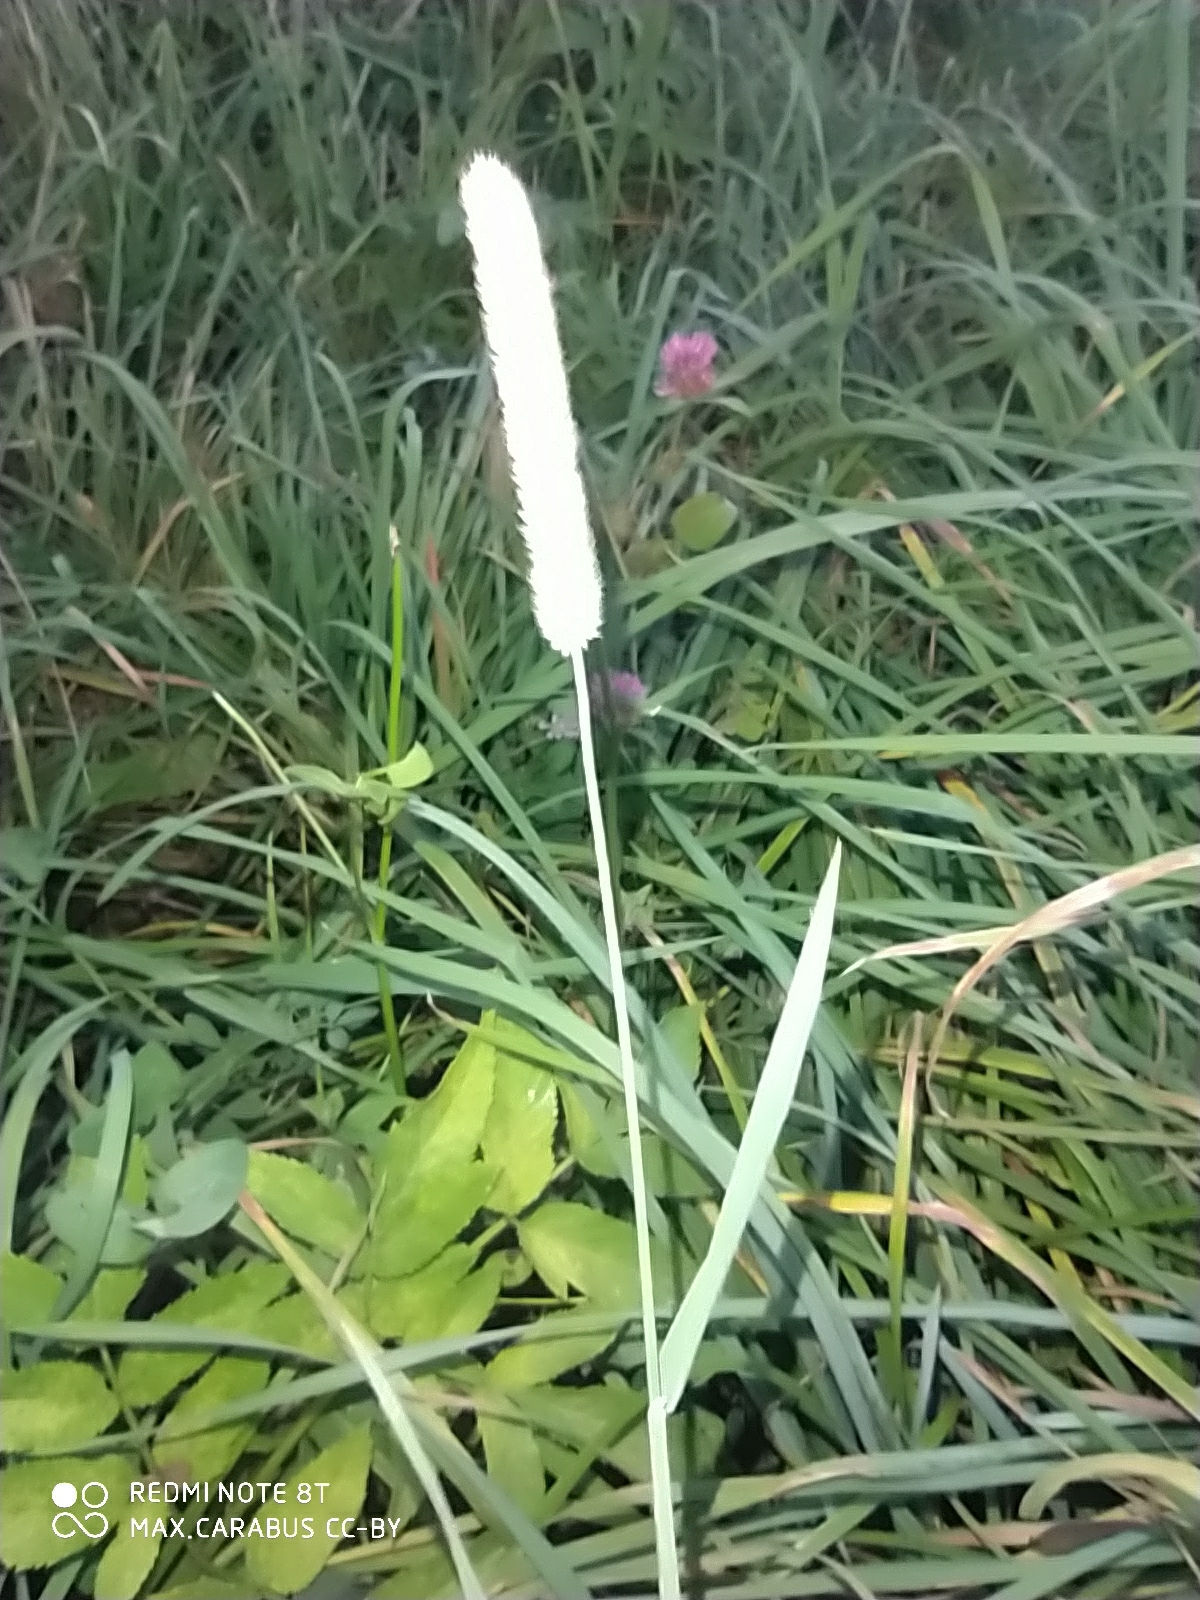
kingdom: Plantae
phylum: Tracheophyta
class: Liliopsida
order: Poales
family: Poaceae
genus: Phleum
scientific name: Phleum pratense
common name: Timothy grass
